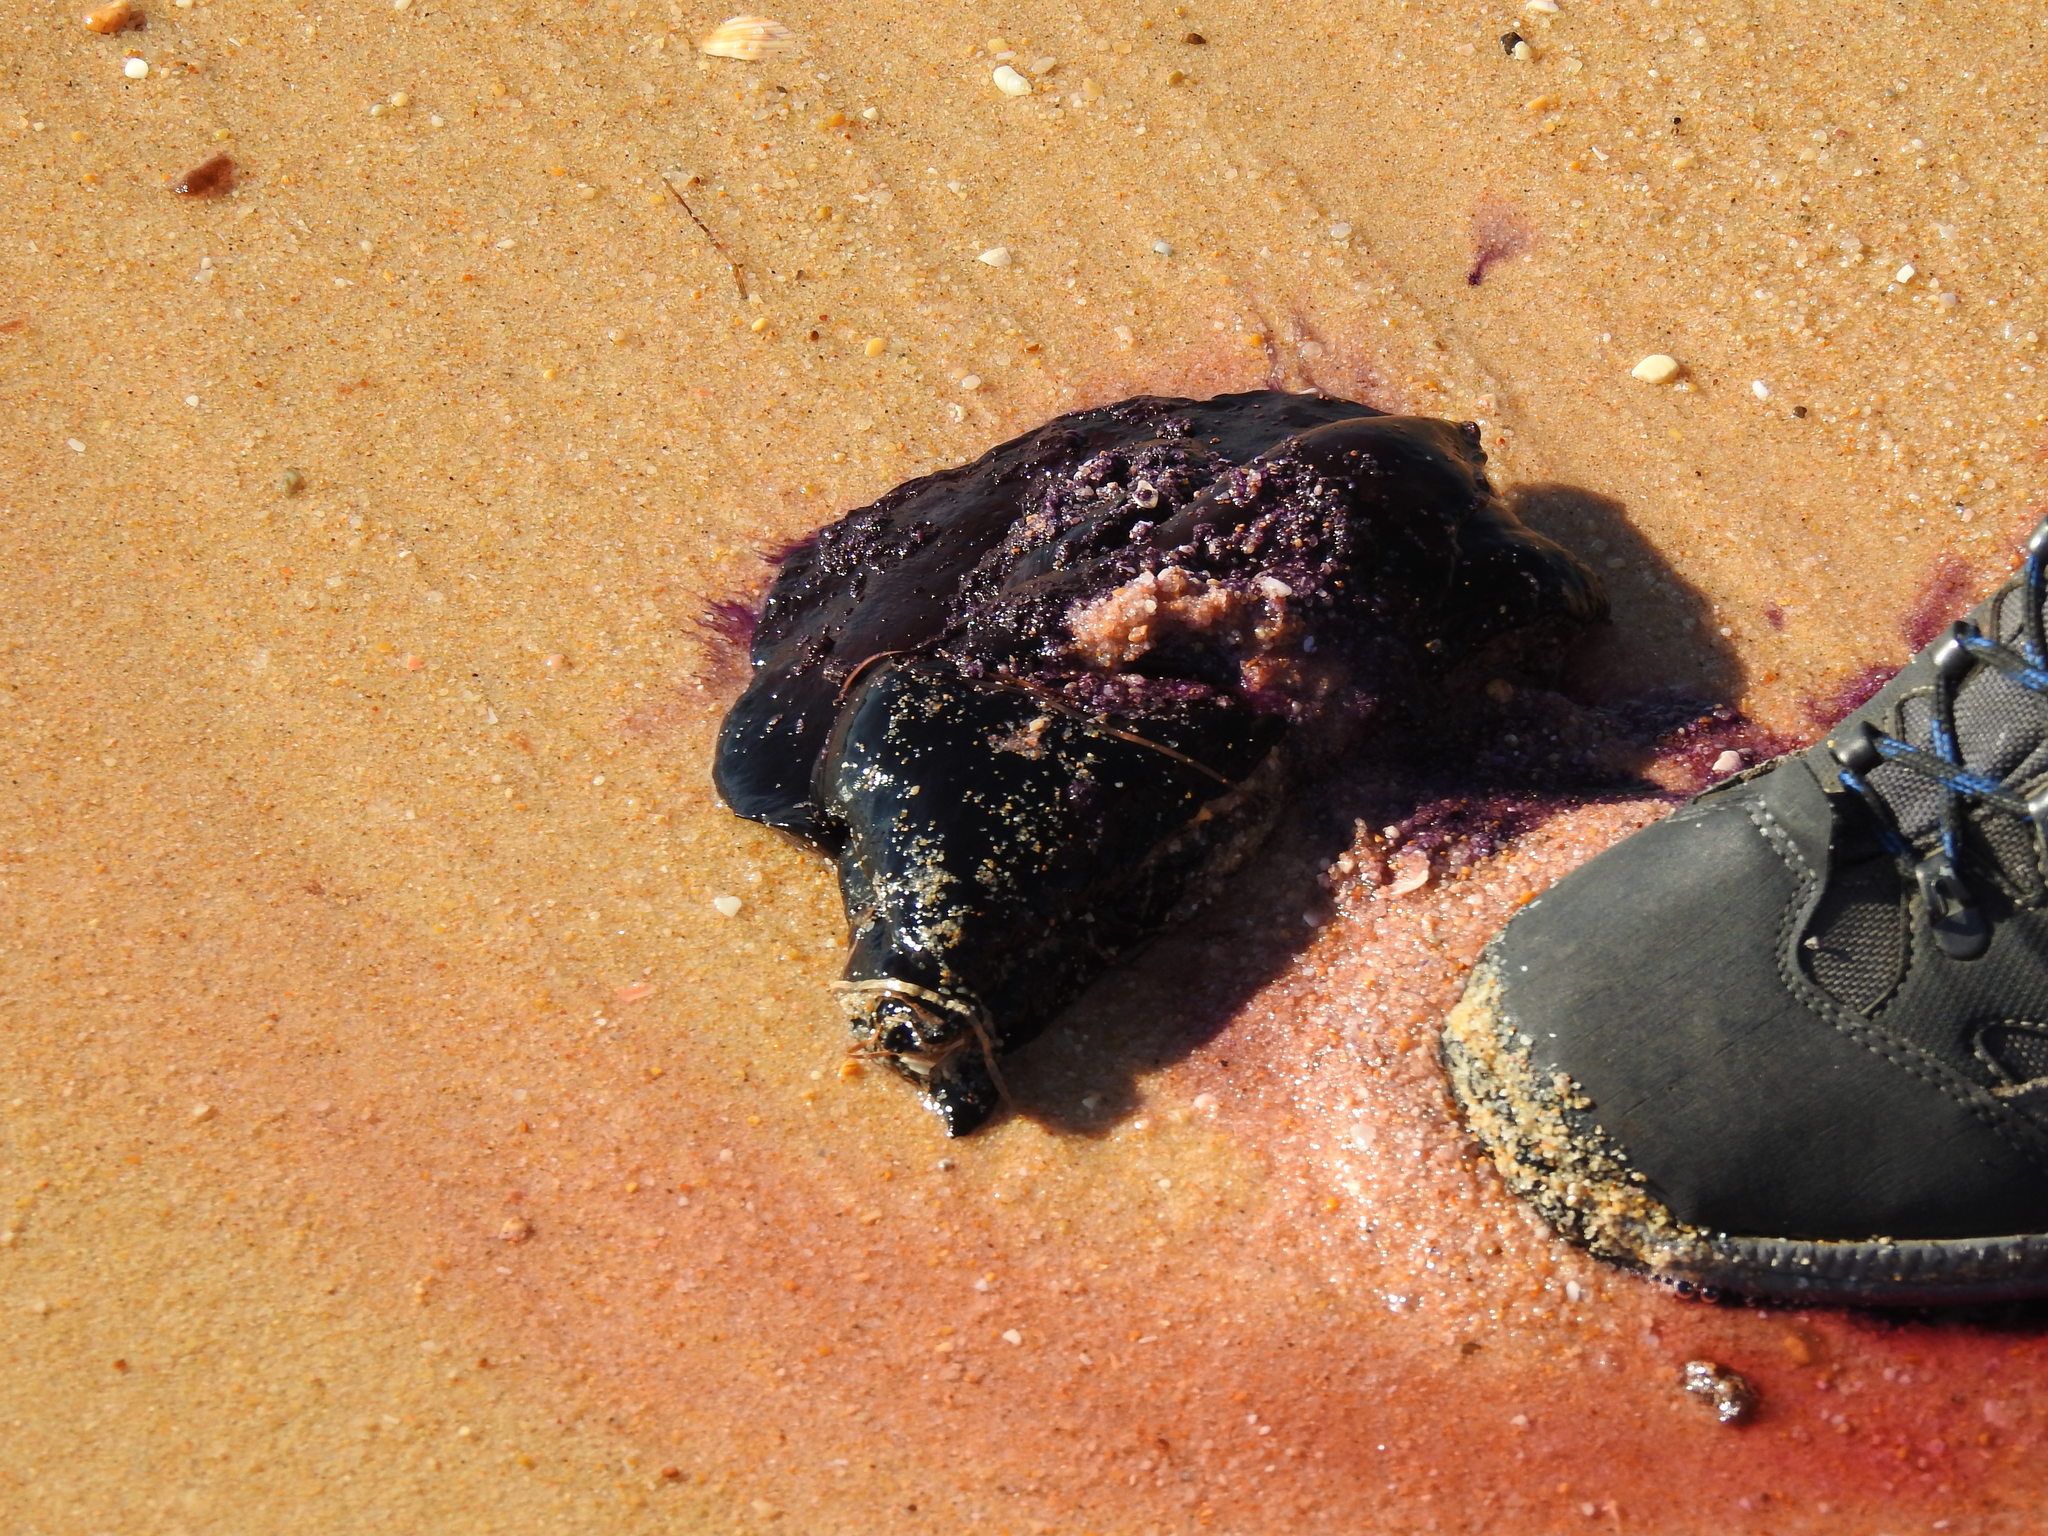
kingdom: Animalia
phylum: Mollusca
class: Gastropoda
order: Aplysiida
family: Aplysiidae
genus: Aplysia
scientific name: Aplysia fasciata
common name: Banded sea hare
